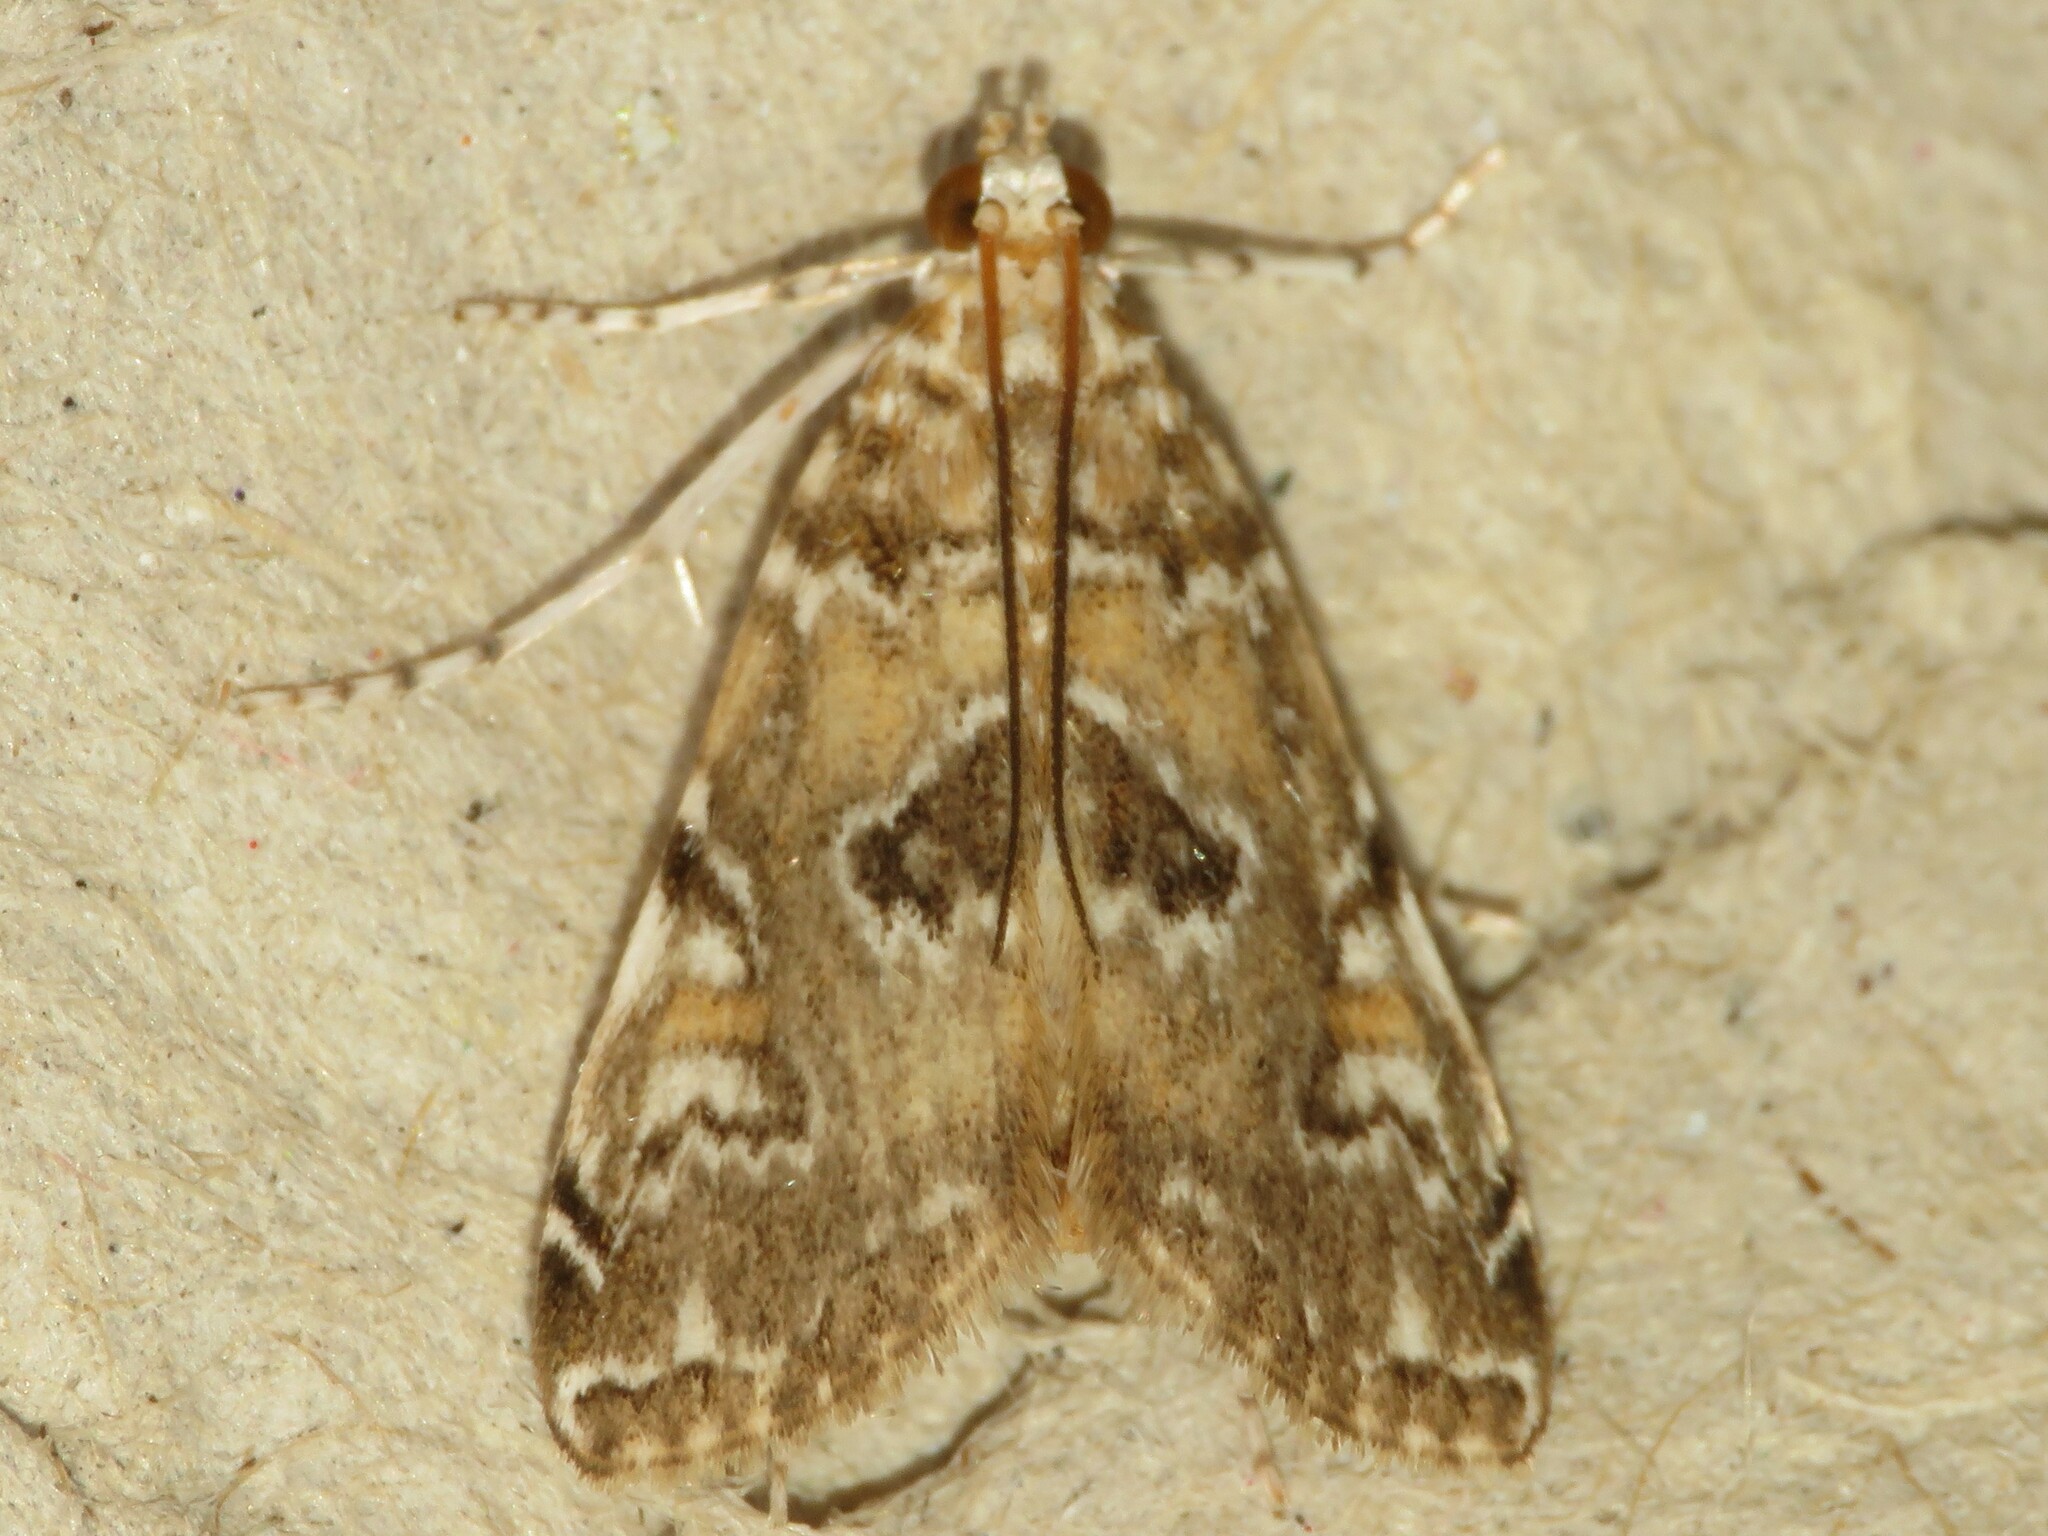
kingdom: Animalia
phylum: Arthropoda
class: Insecta
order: Lepidoptera
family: Crambidae
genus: Elophila
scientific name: Elophila gyralis
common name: Waterlily borer moth
